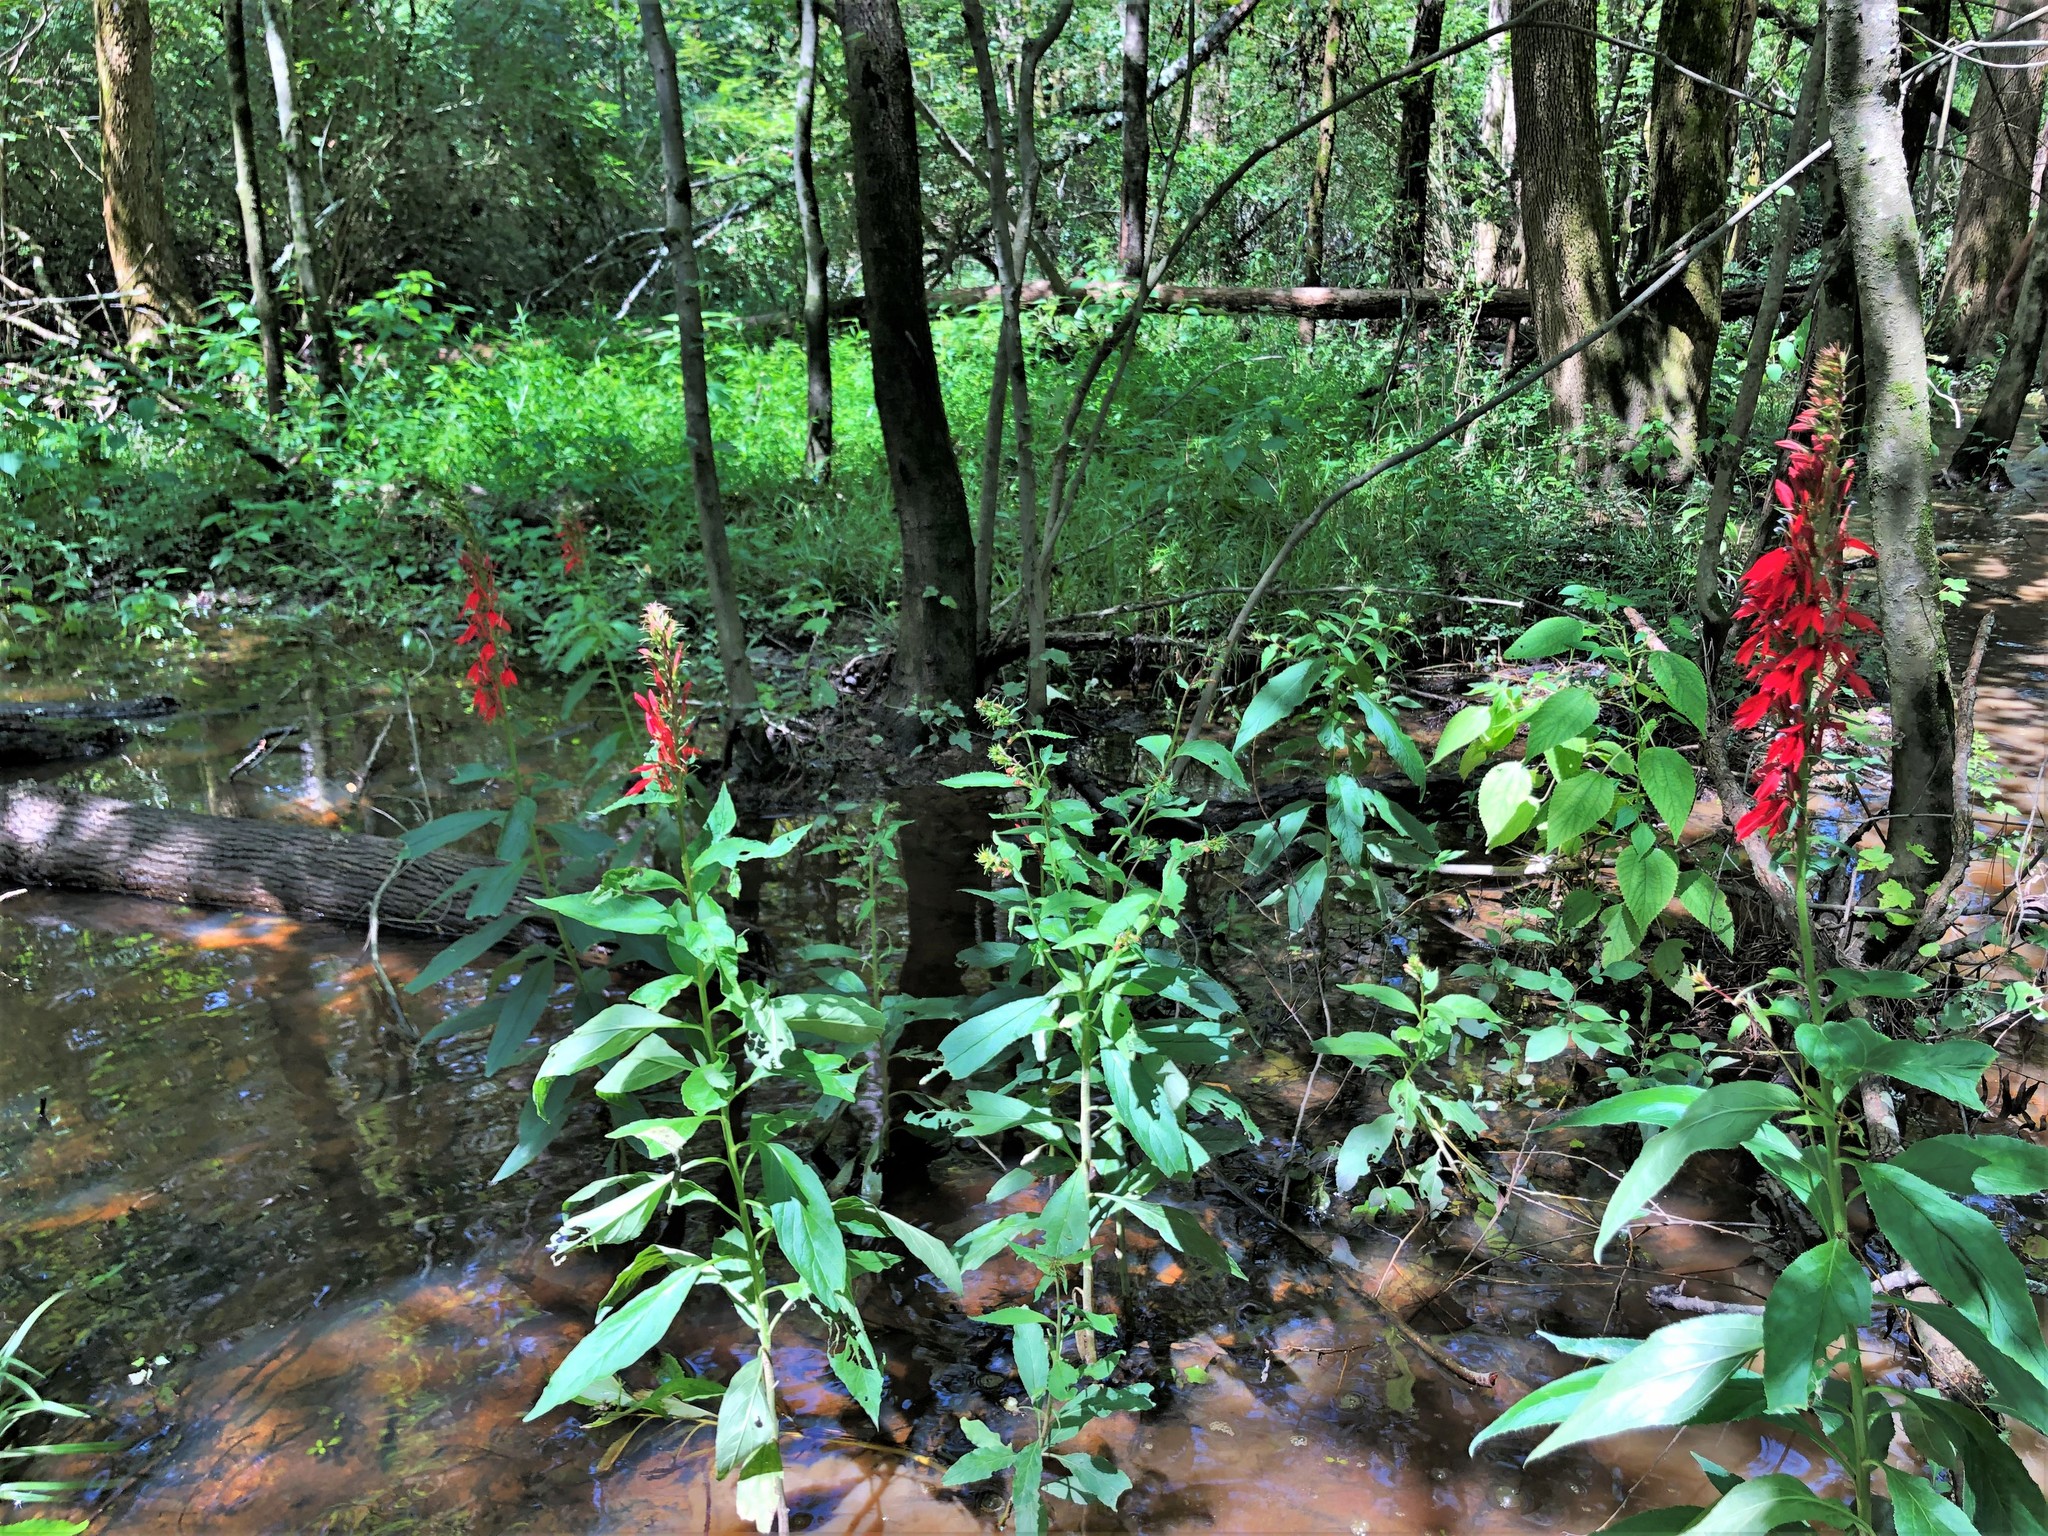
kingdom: Plantae
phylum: Tracheophyta
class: Magnoliopsida
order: Asterales
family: Campanulaceae
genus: Lobelia
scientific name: Lobelia cardinalis
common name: Cardinal flower
